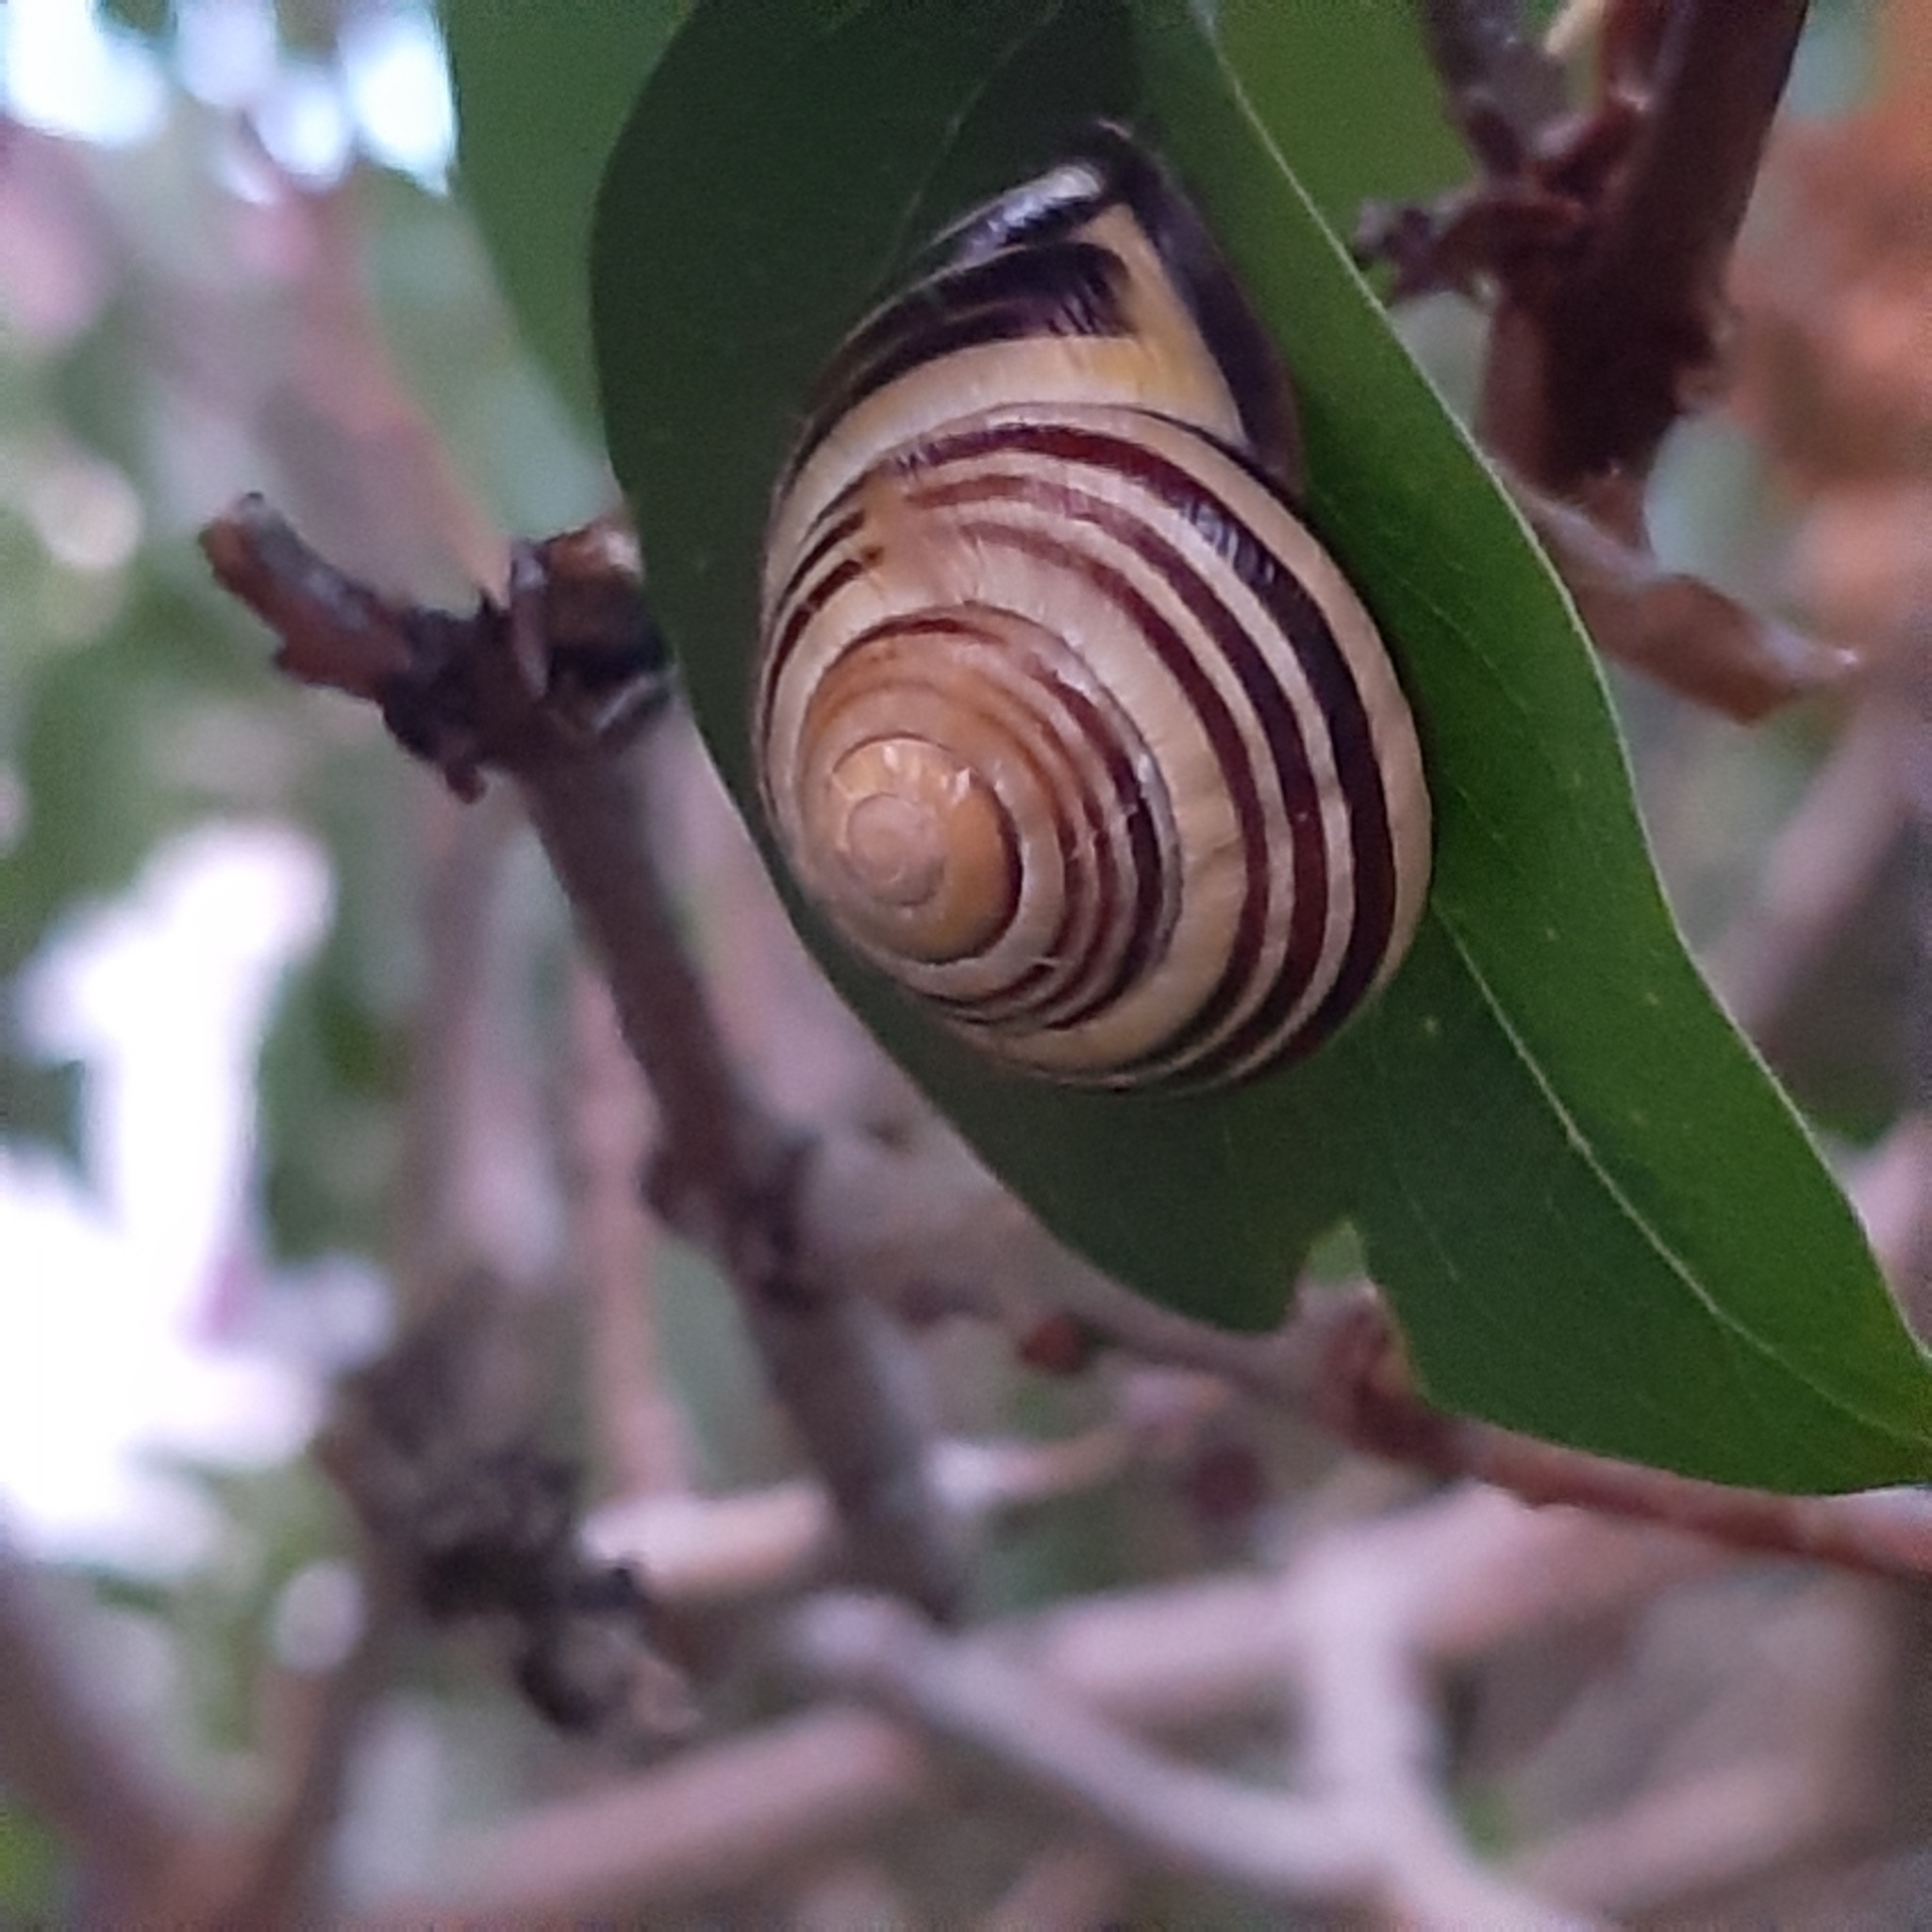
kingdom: Animalia
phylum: Mollusca
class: Gastropoda
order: Stylommatophora
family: Helicidae
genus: Cepaea
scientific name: Cepaea nemoralis
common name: Grovesnail
